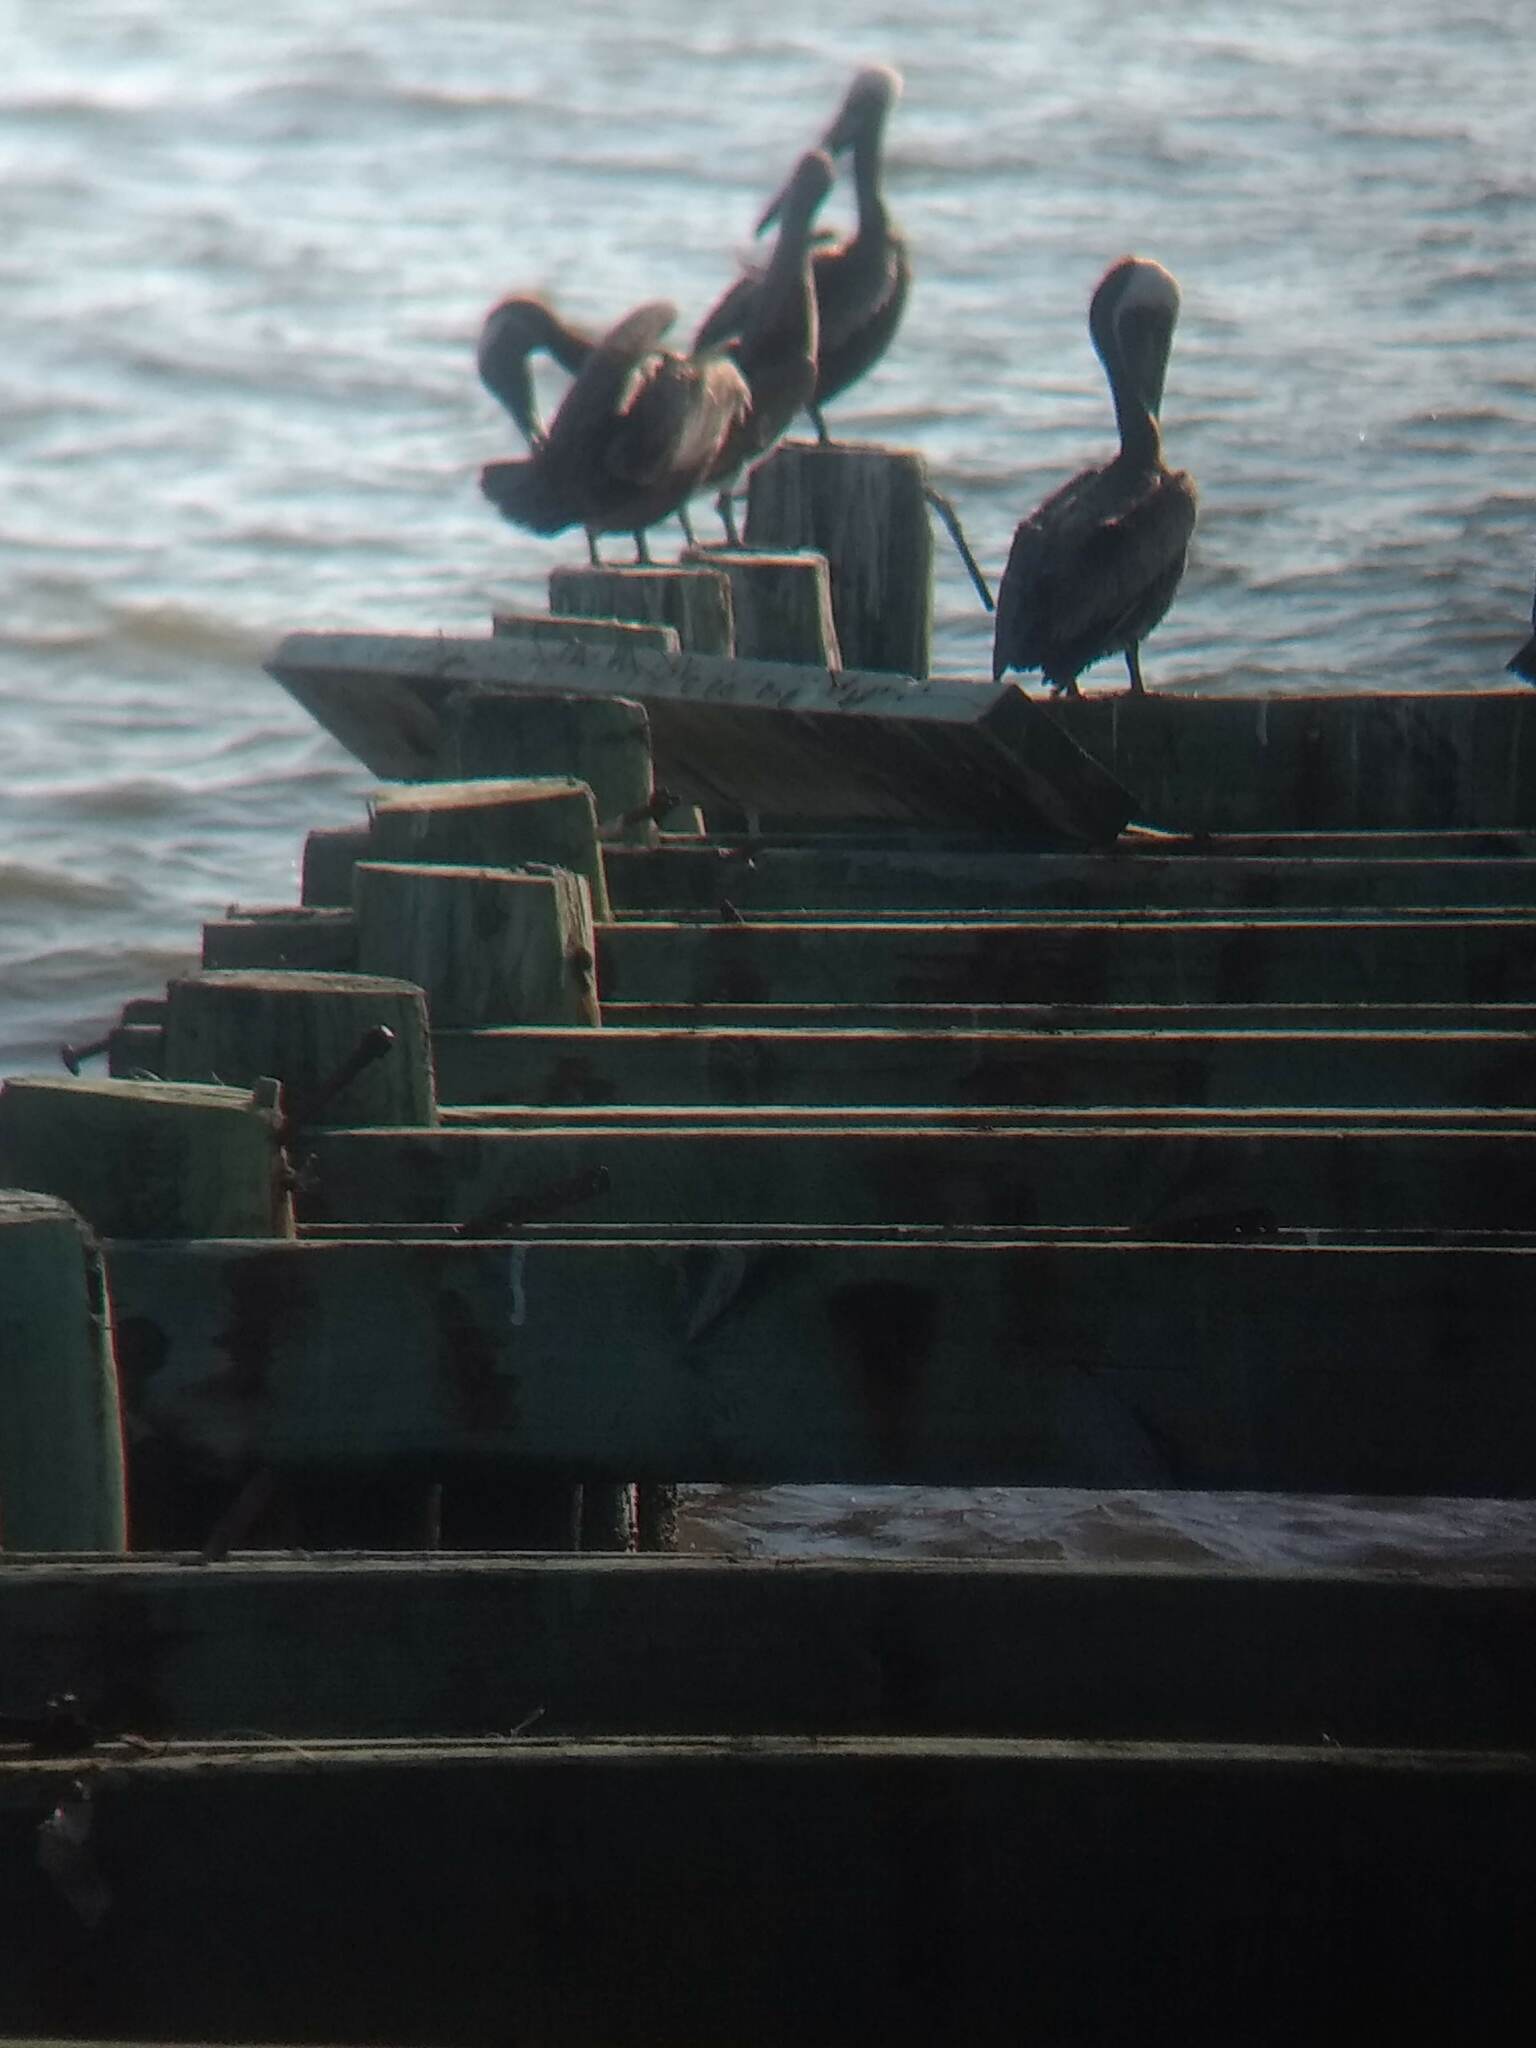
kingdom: Animalia
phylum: Chordata
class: Aves
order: Pelecaniformes
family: Pelecanidae
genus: Pelecanus
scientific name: Pelecanus occidentalis
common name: Brown pelican
